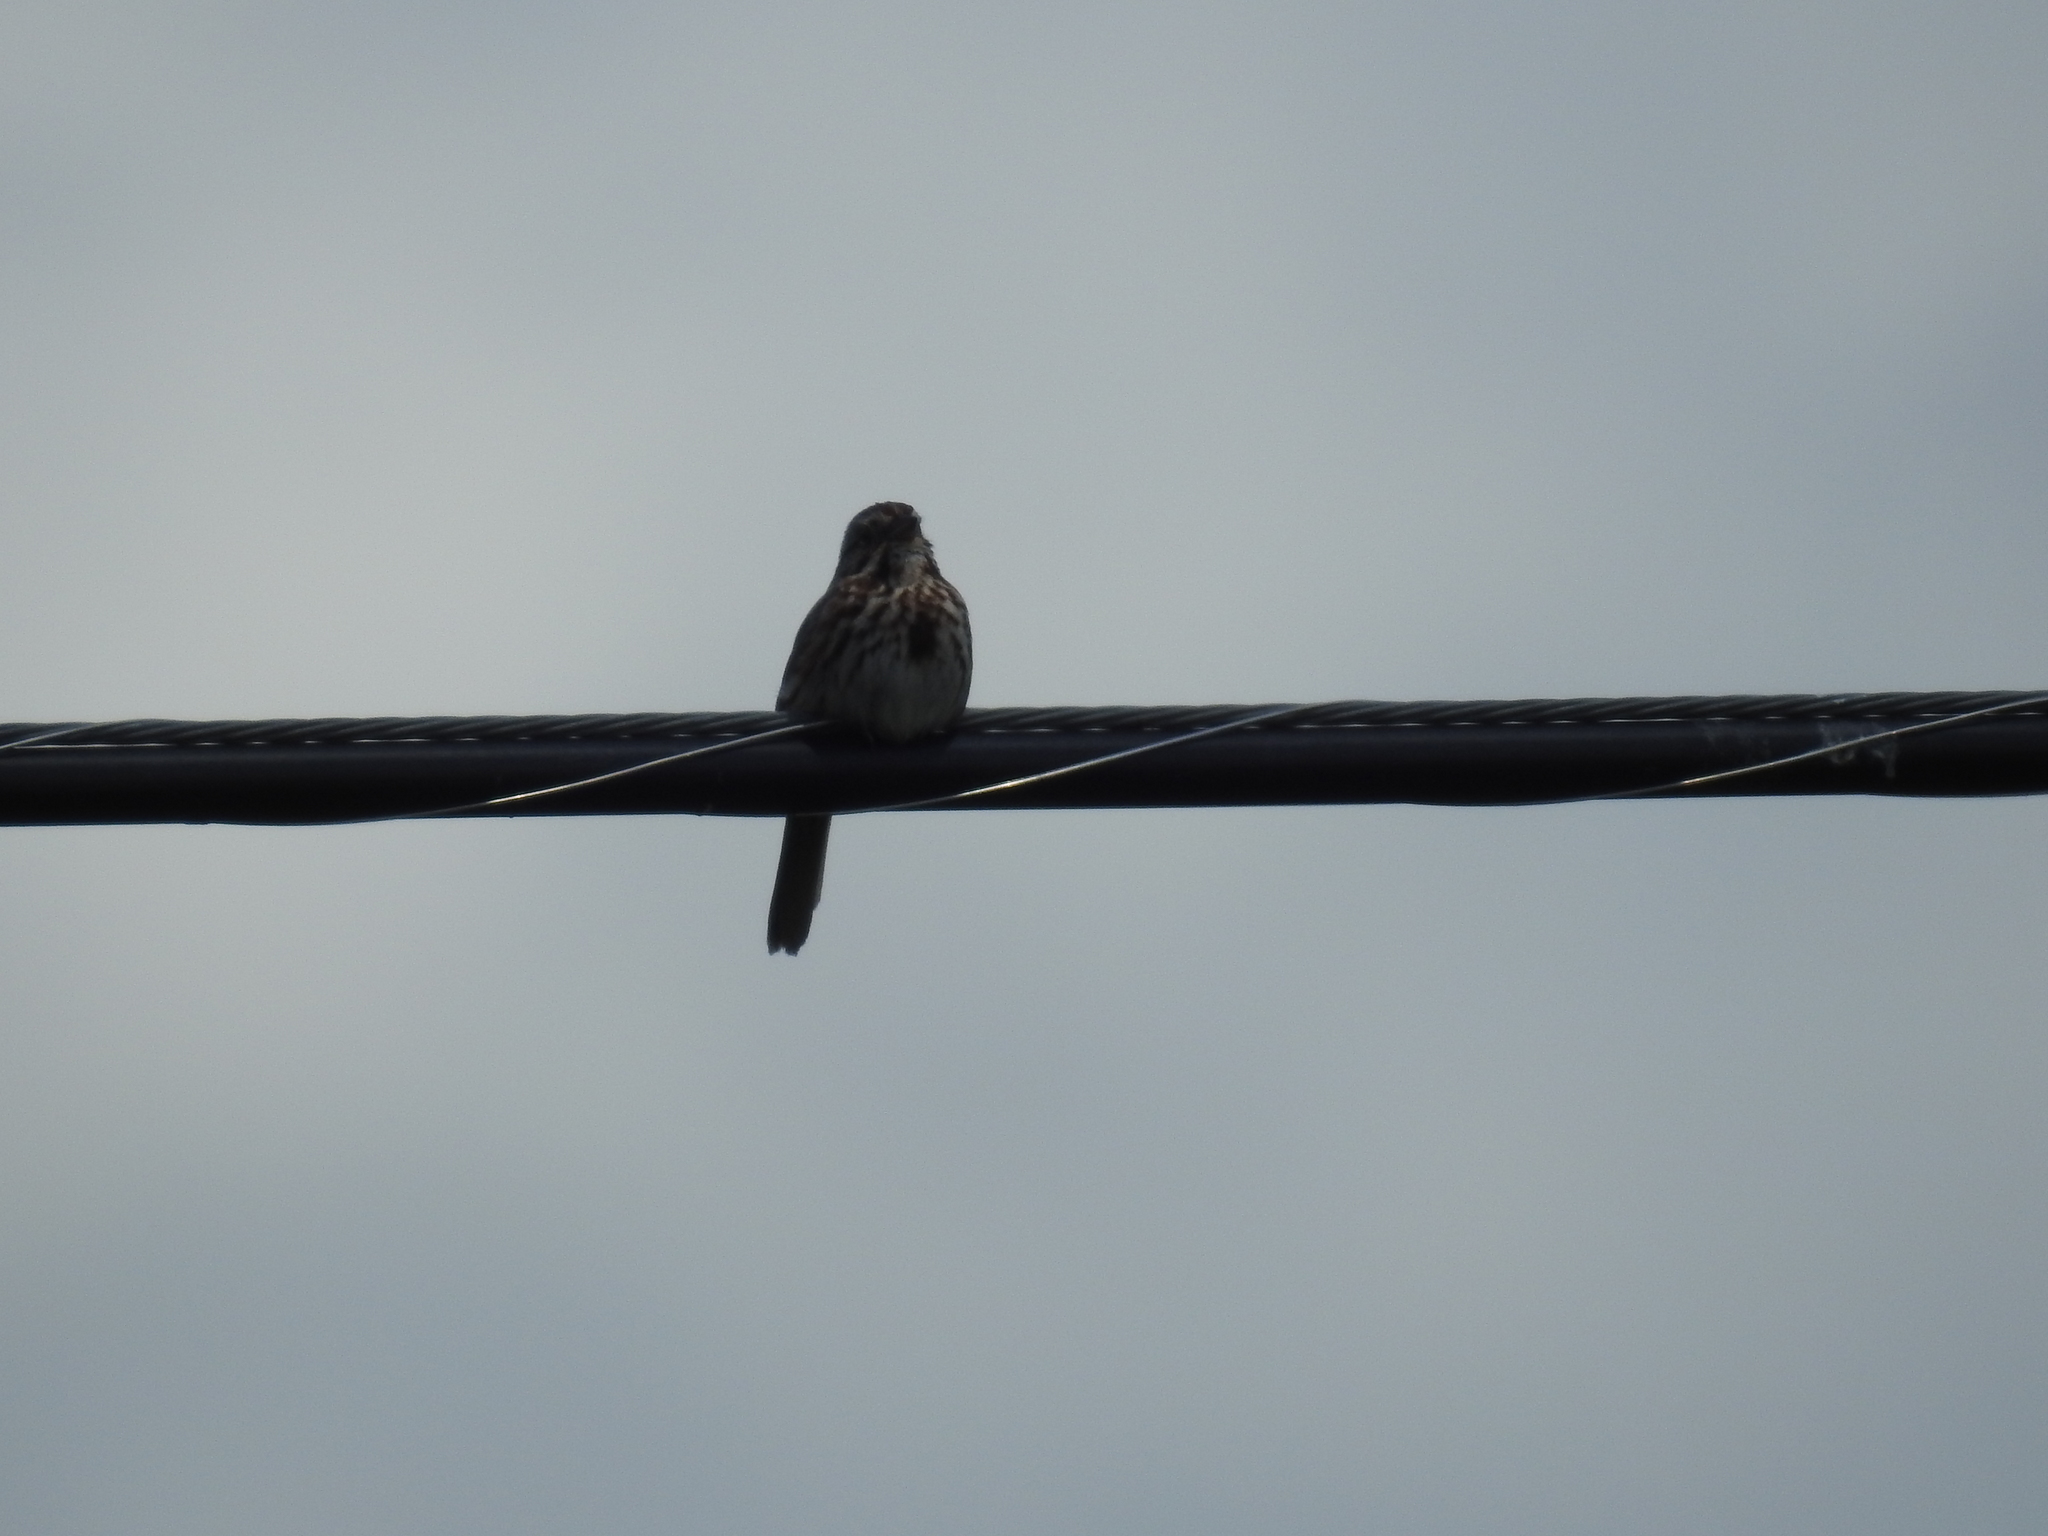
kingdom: Animalia
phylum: Chordata
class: Aves
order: Passeriformes
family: Passerellidae
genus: Melospiza
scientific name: Melospiza melodia
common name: Song sparrow
